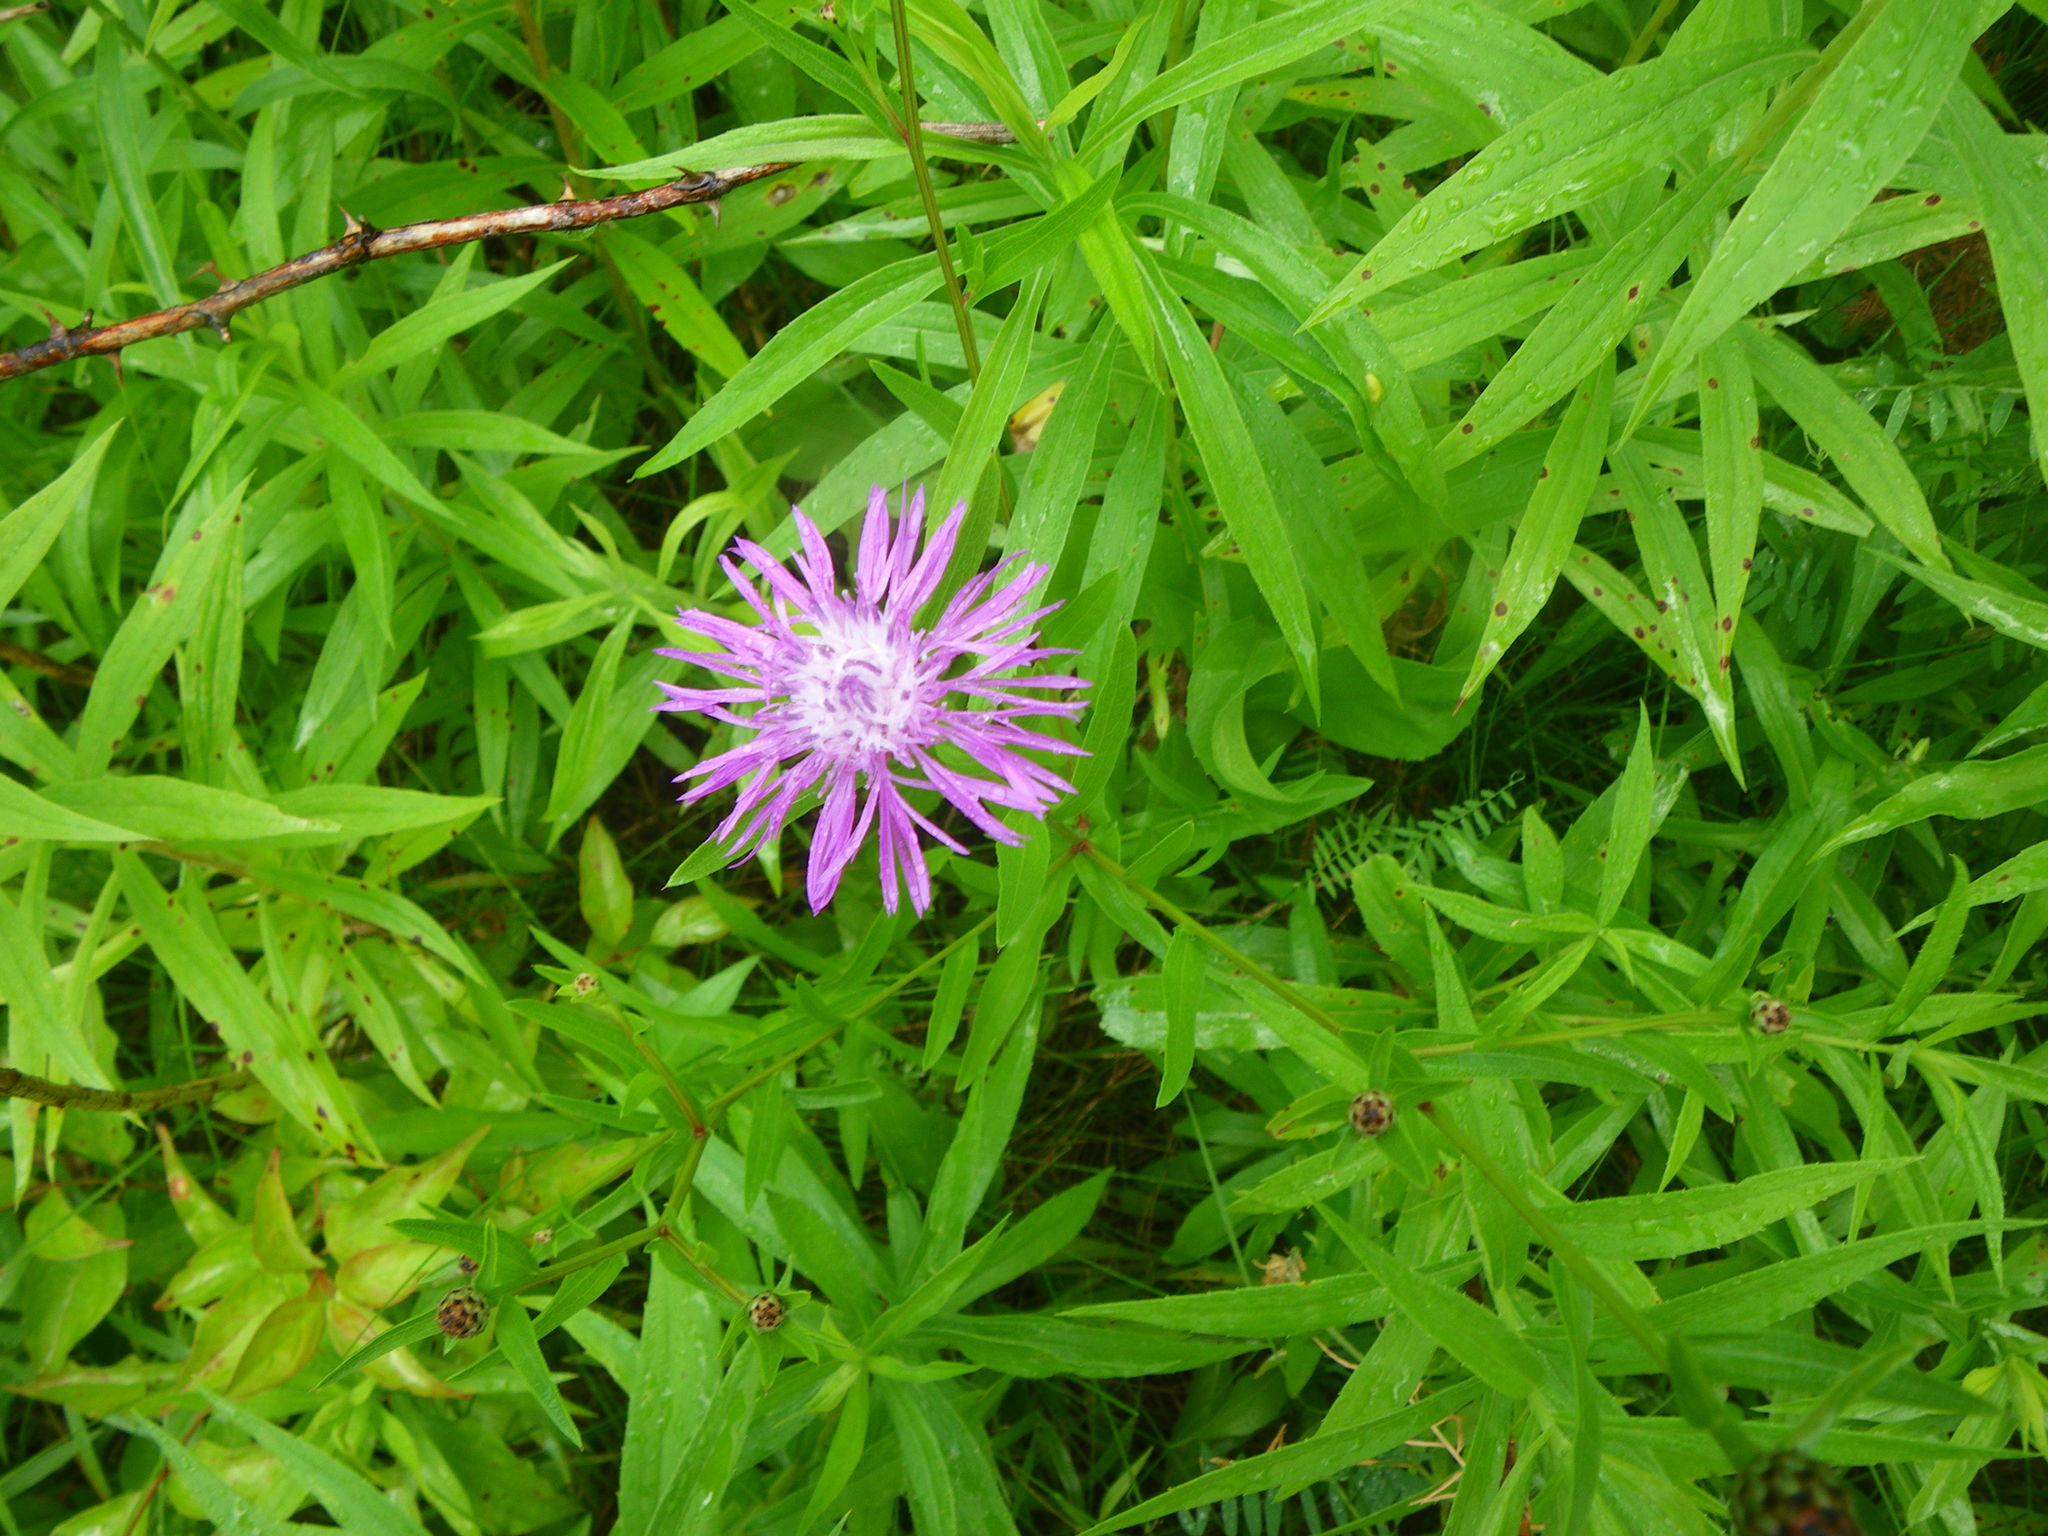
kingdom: Plantae
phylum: Tracheophyta
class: Magnoliopsida
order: Asterales
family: Asteraceae
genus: Centaurea
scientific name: Centaurea nigrescens
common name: Tyrol knapweed
